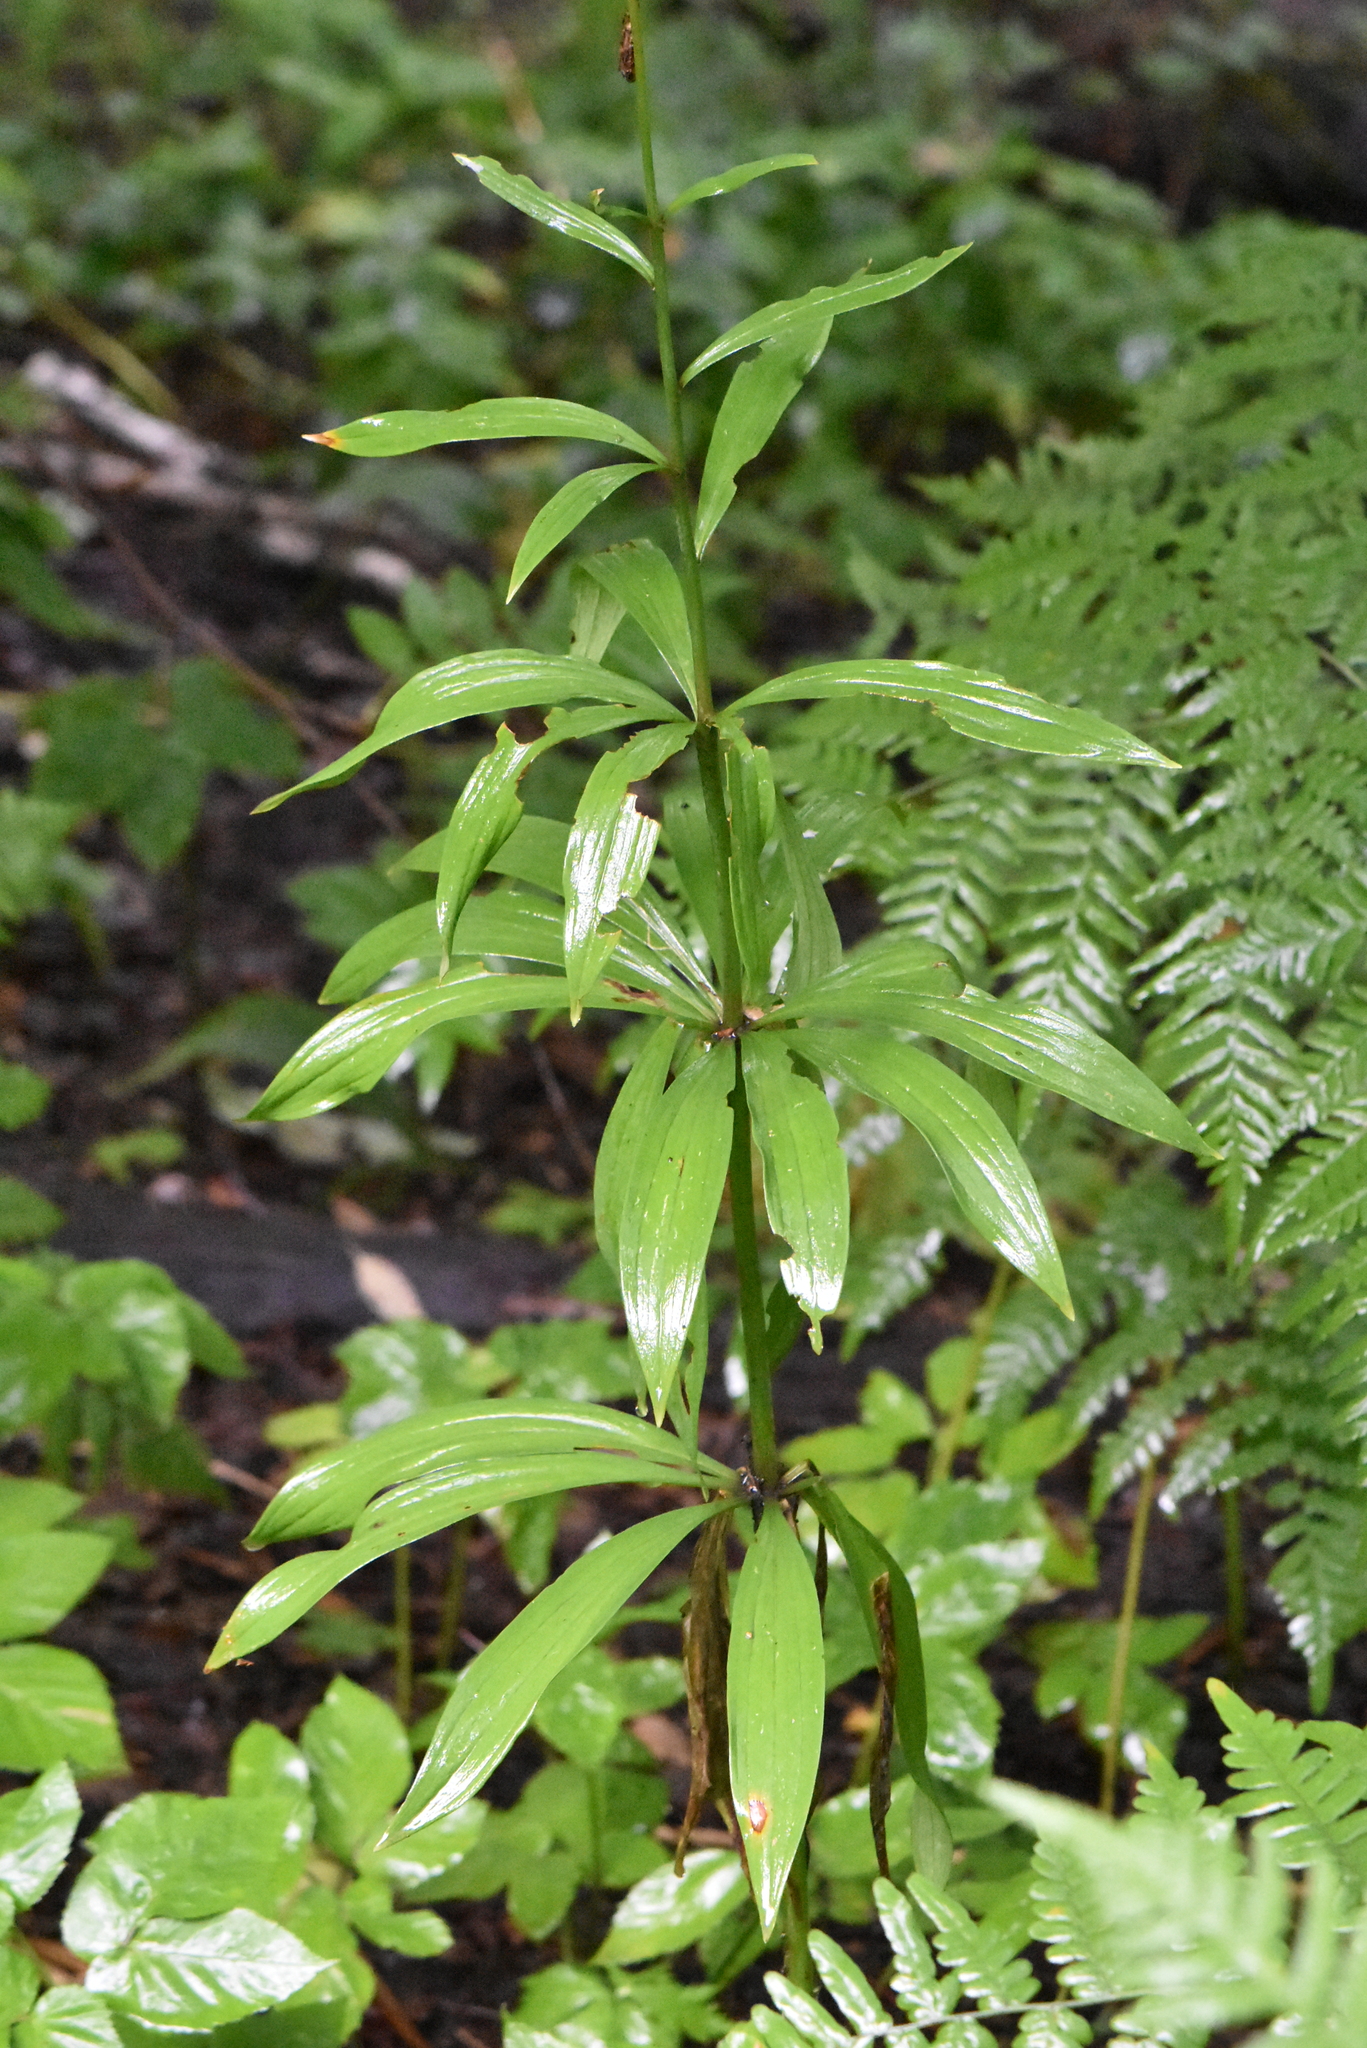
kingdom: Plantae
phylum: Tracheophyta
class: Liliopsida
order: Liliales
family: Liliaceae
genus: Lilium
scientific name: Lilium martagon
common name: Martagon lily
